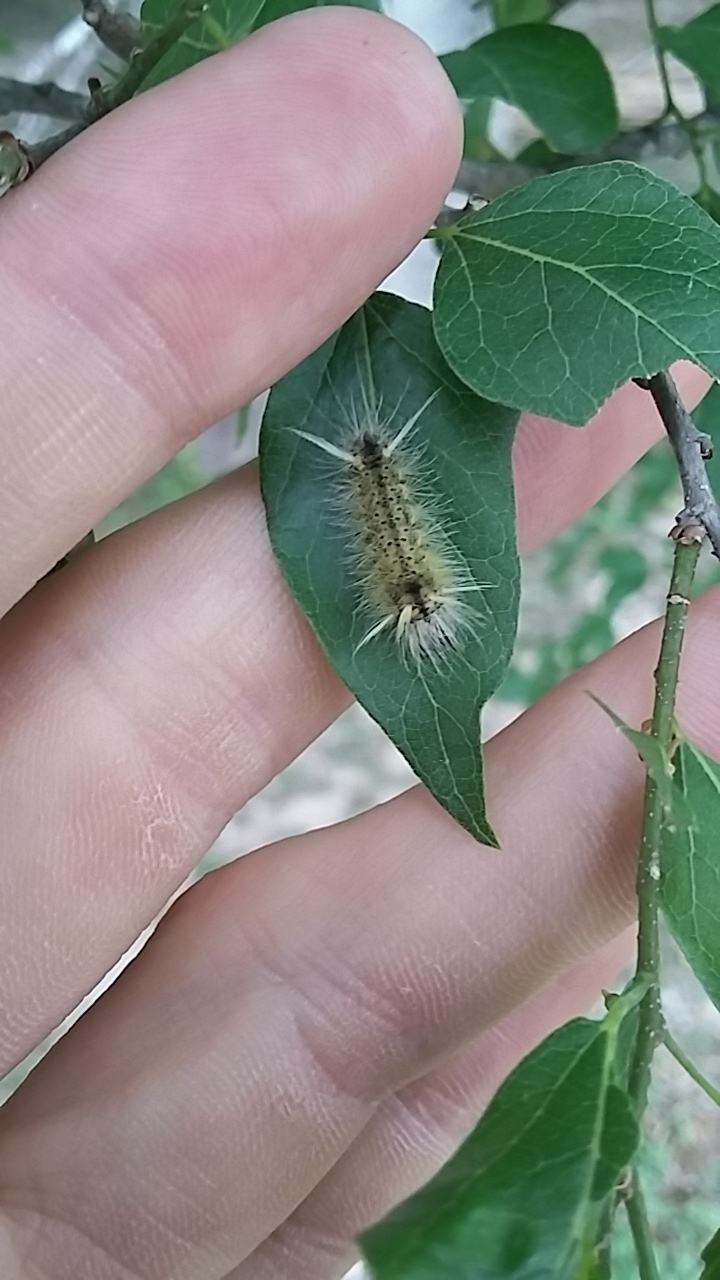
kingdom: Animalia
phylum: Arthropoda
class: Insecta
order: Lepidoptera
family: Erebidae
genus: Halysidota
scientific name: Halysidota schausi
